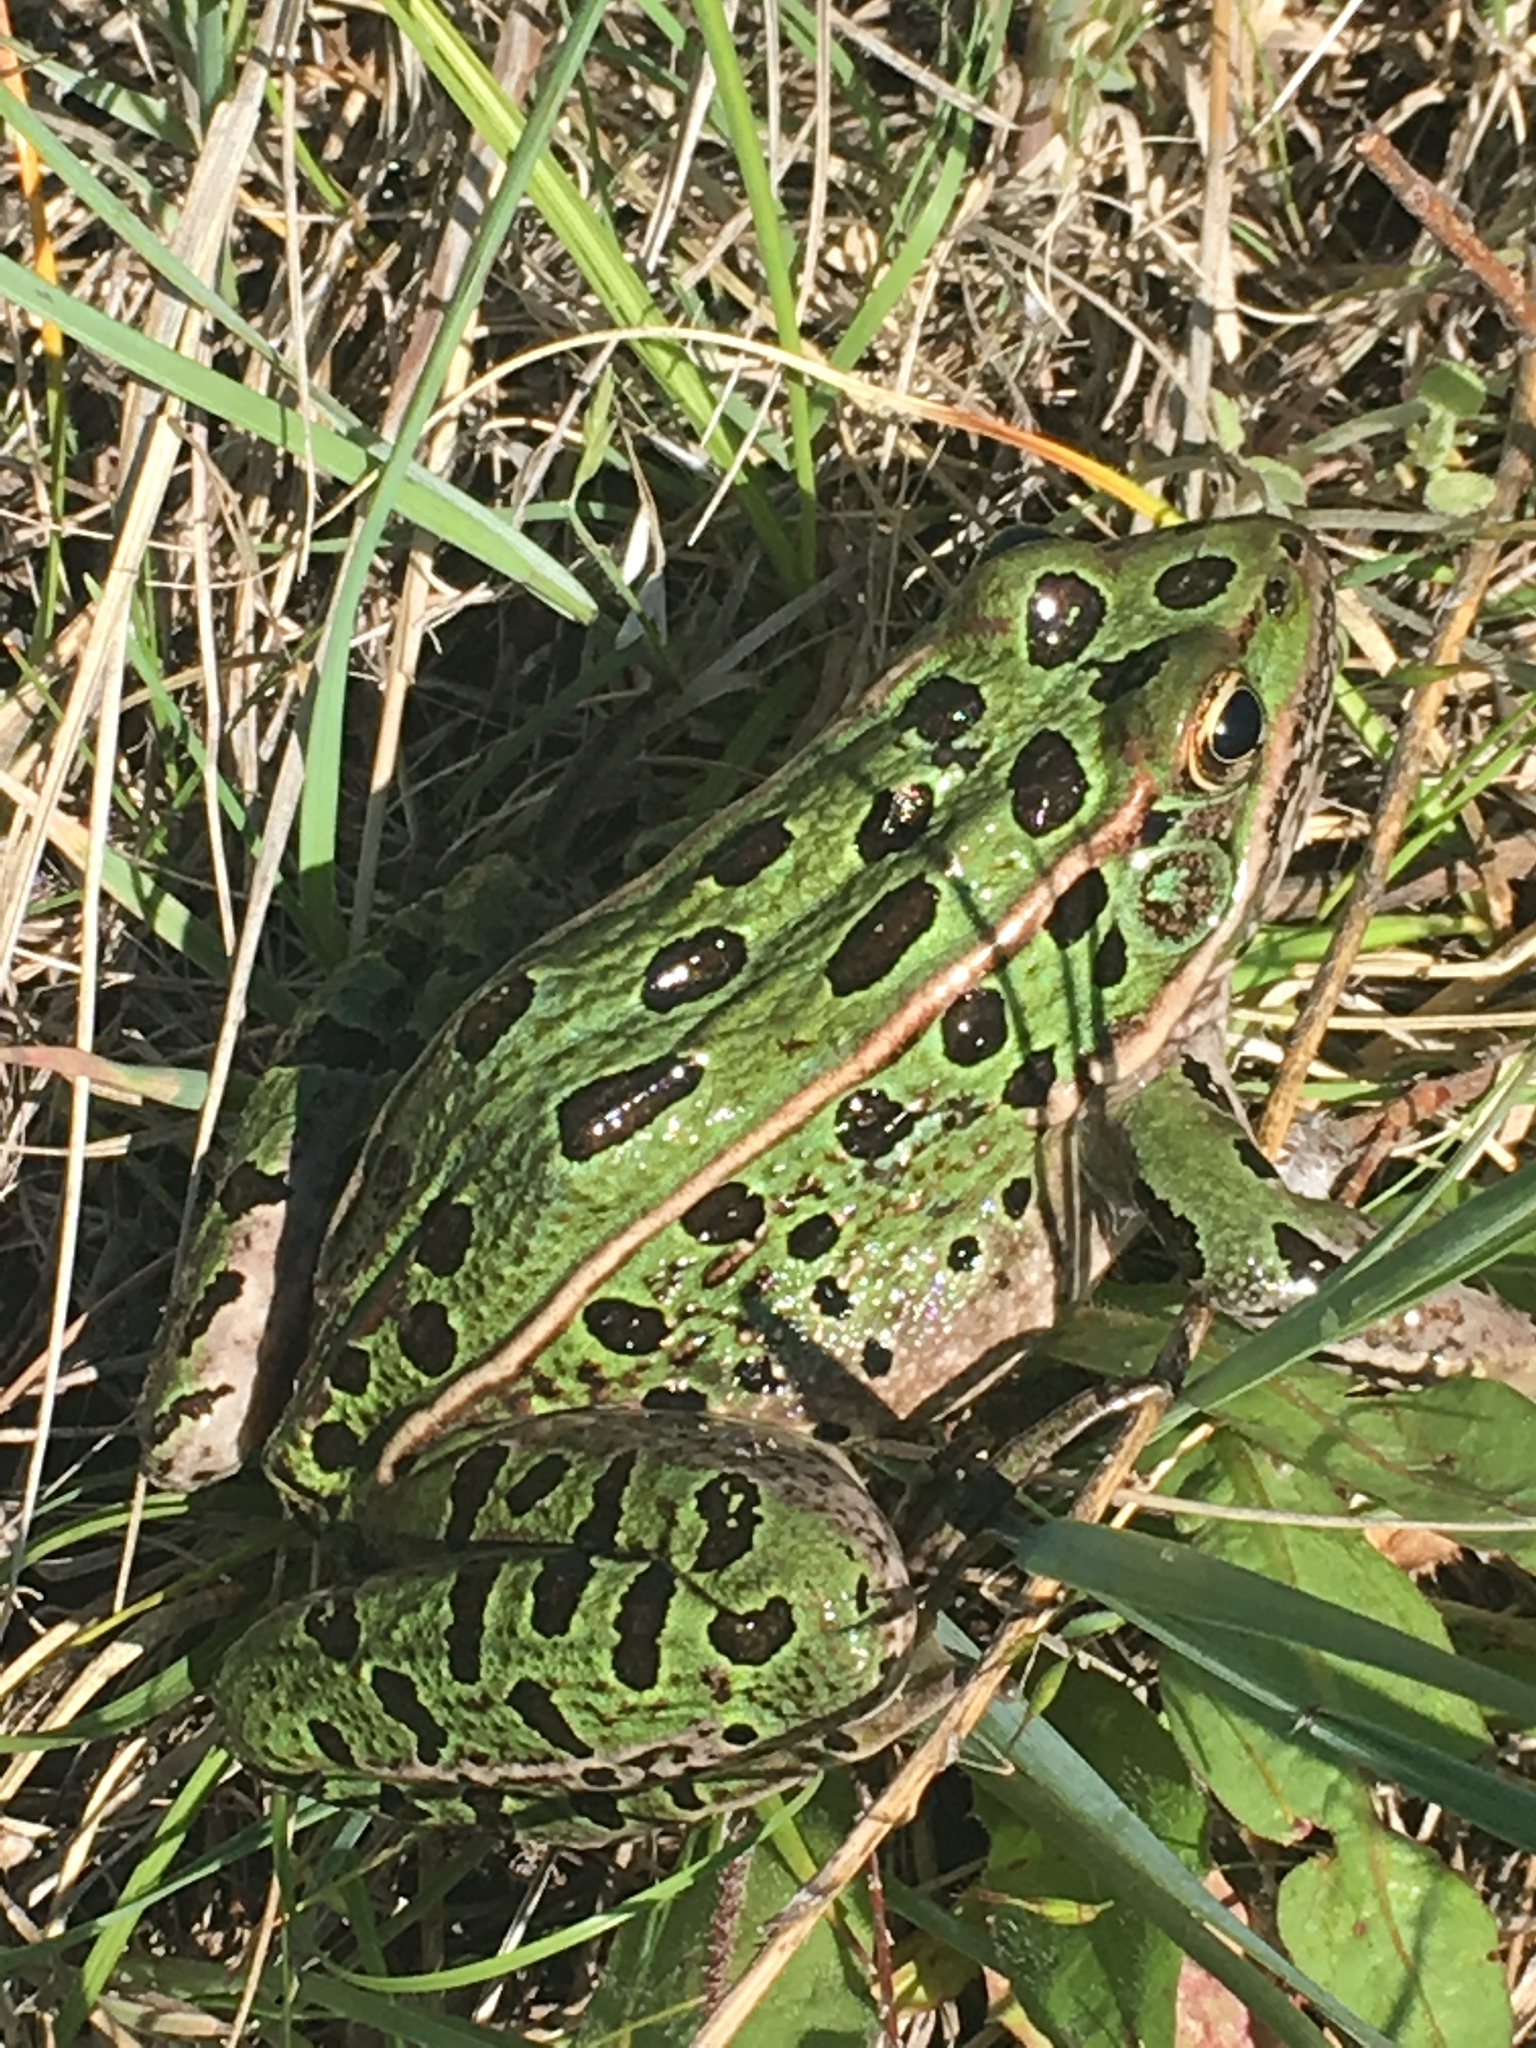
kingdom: Animalia
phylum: Chordata
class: Amphibia
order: Anura
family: Ranidae
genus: Lithobates
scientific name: Lithobates pipiens
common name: Northern leopard frog
